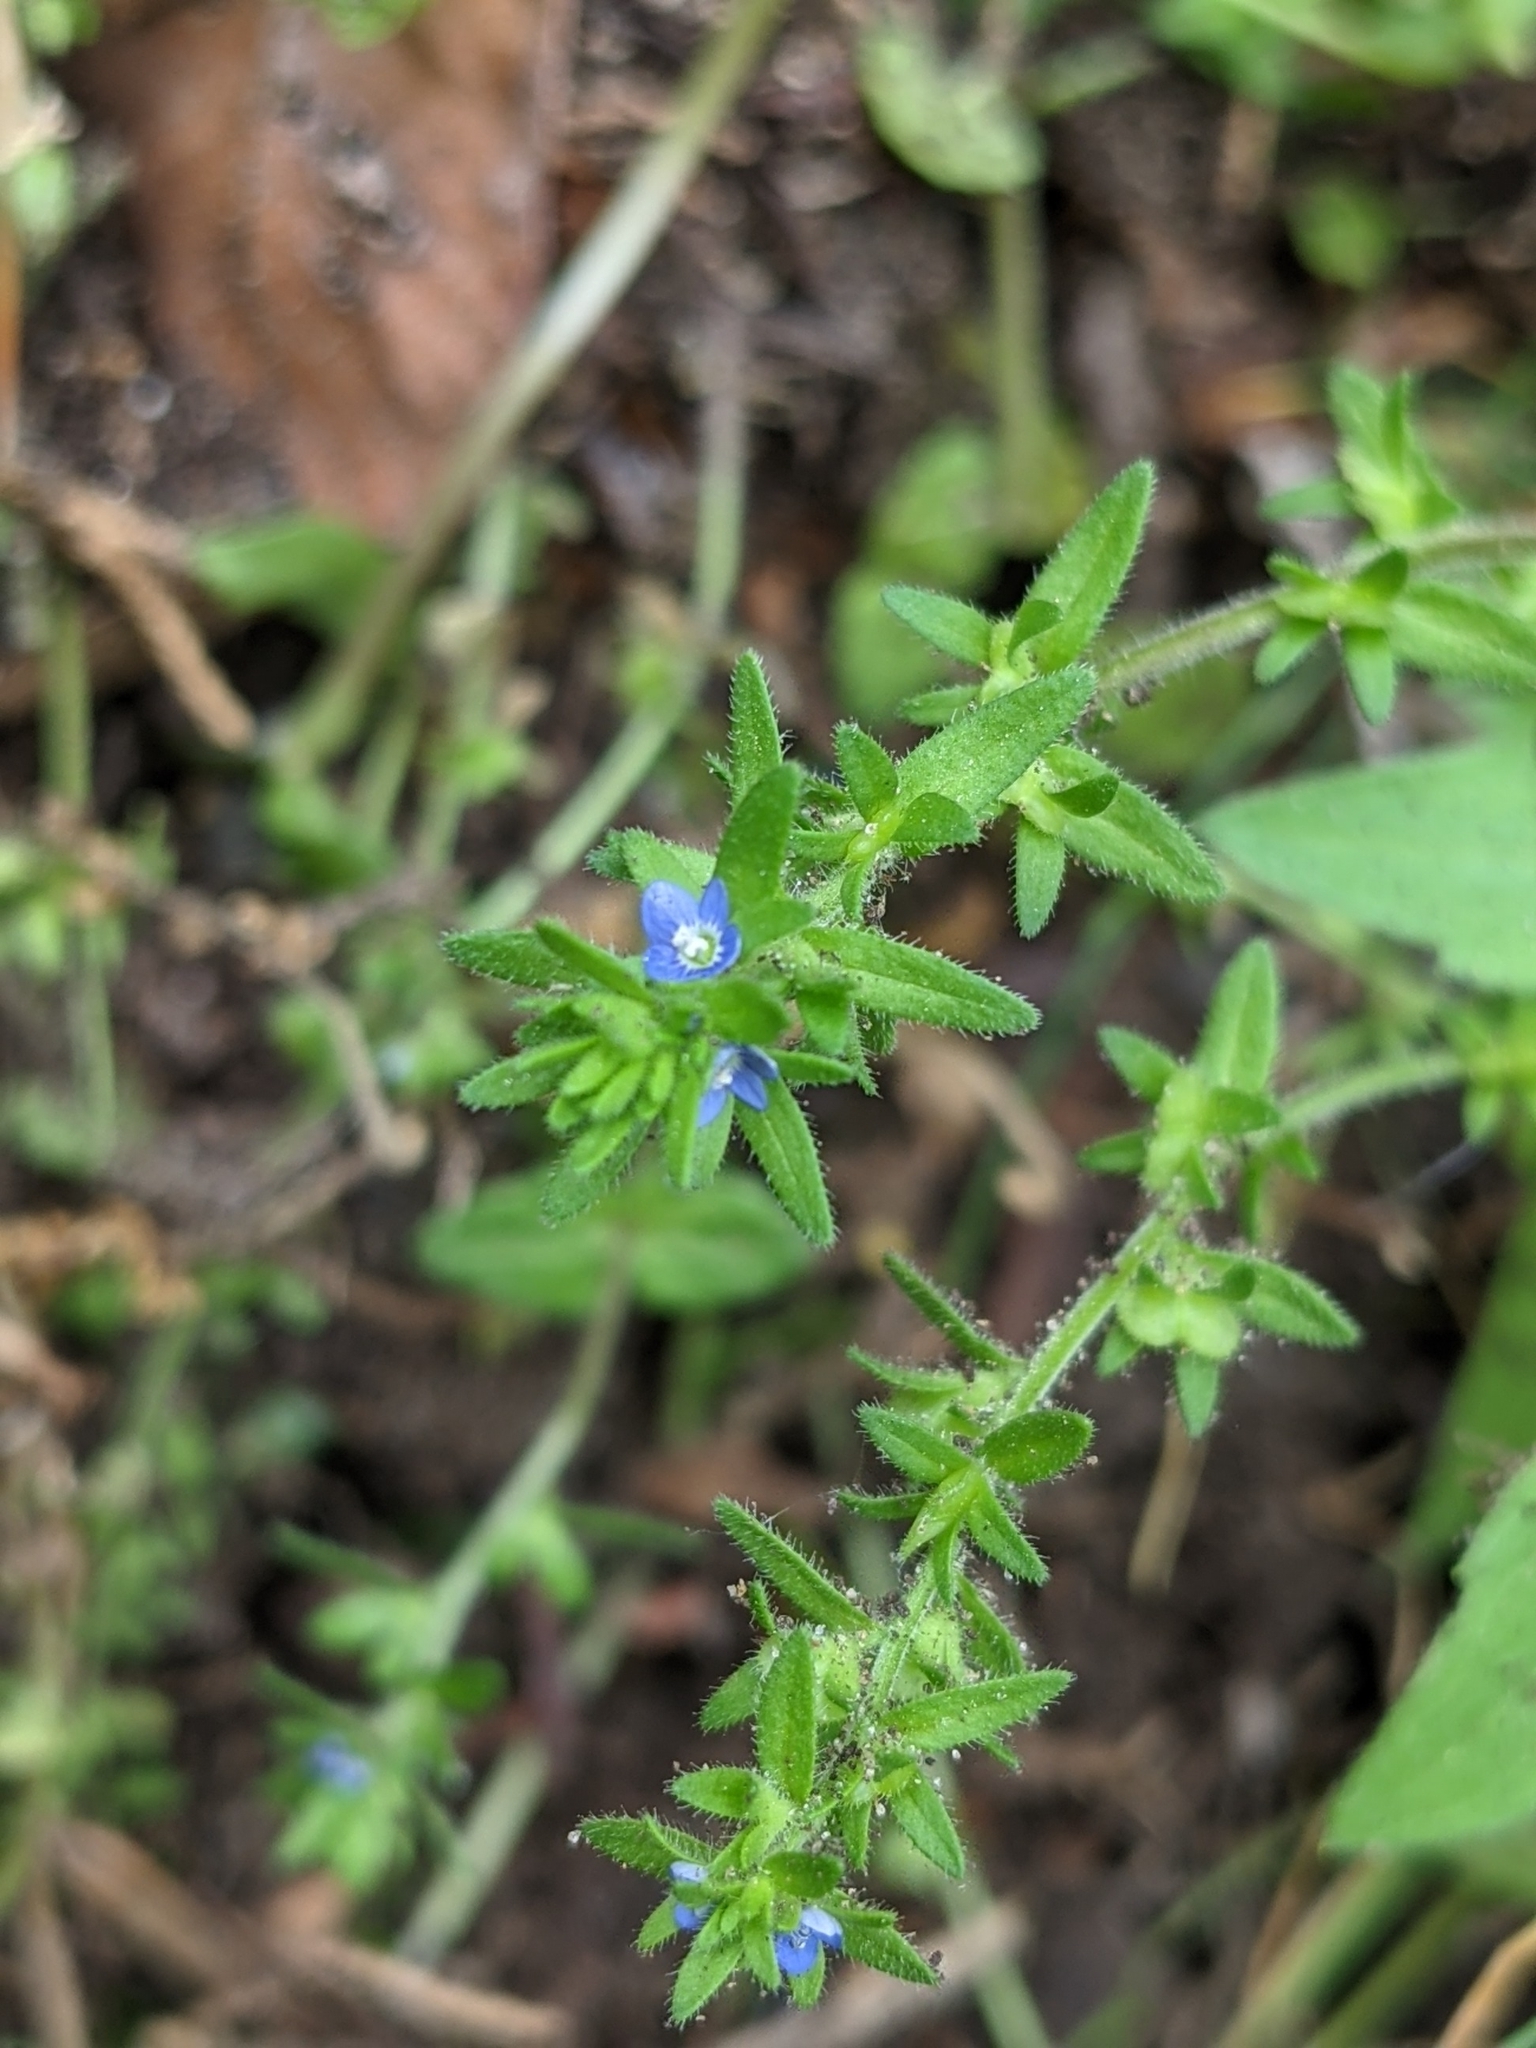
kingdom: Plantae
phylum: Tracheophyta
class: Magnoliopsida
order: Lamiales
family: Plantaginaceae
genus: Veronica
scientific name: Veronica arvensis
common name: Corn speedwell
